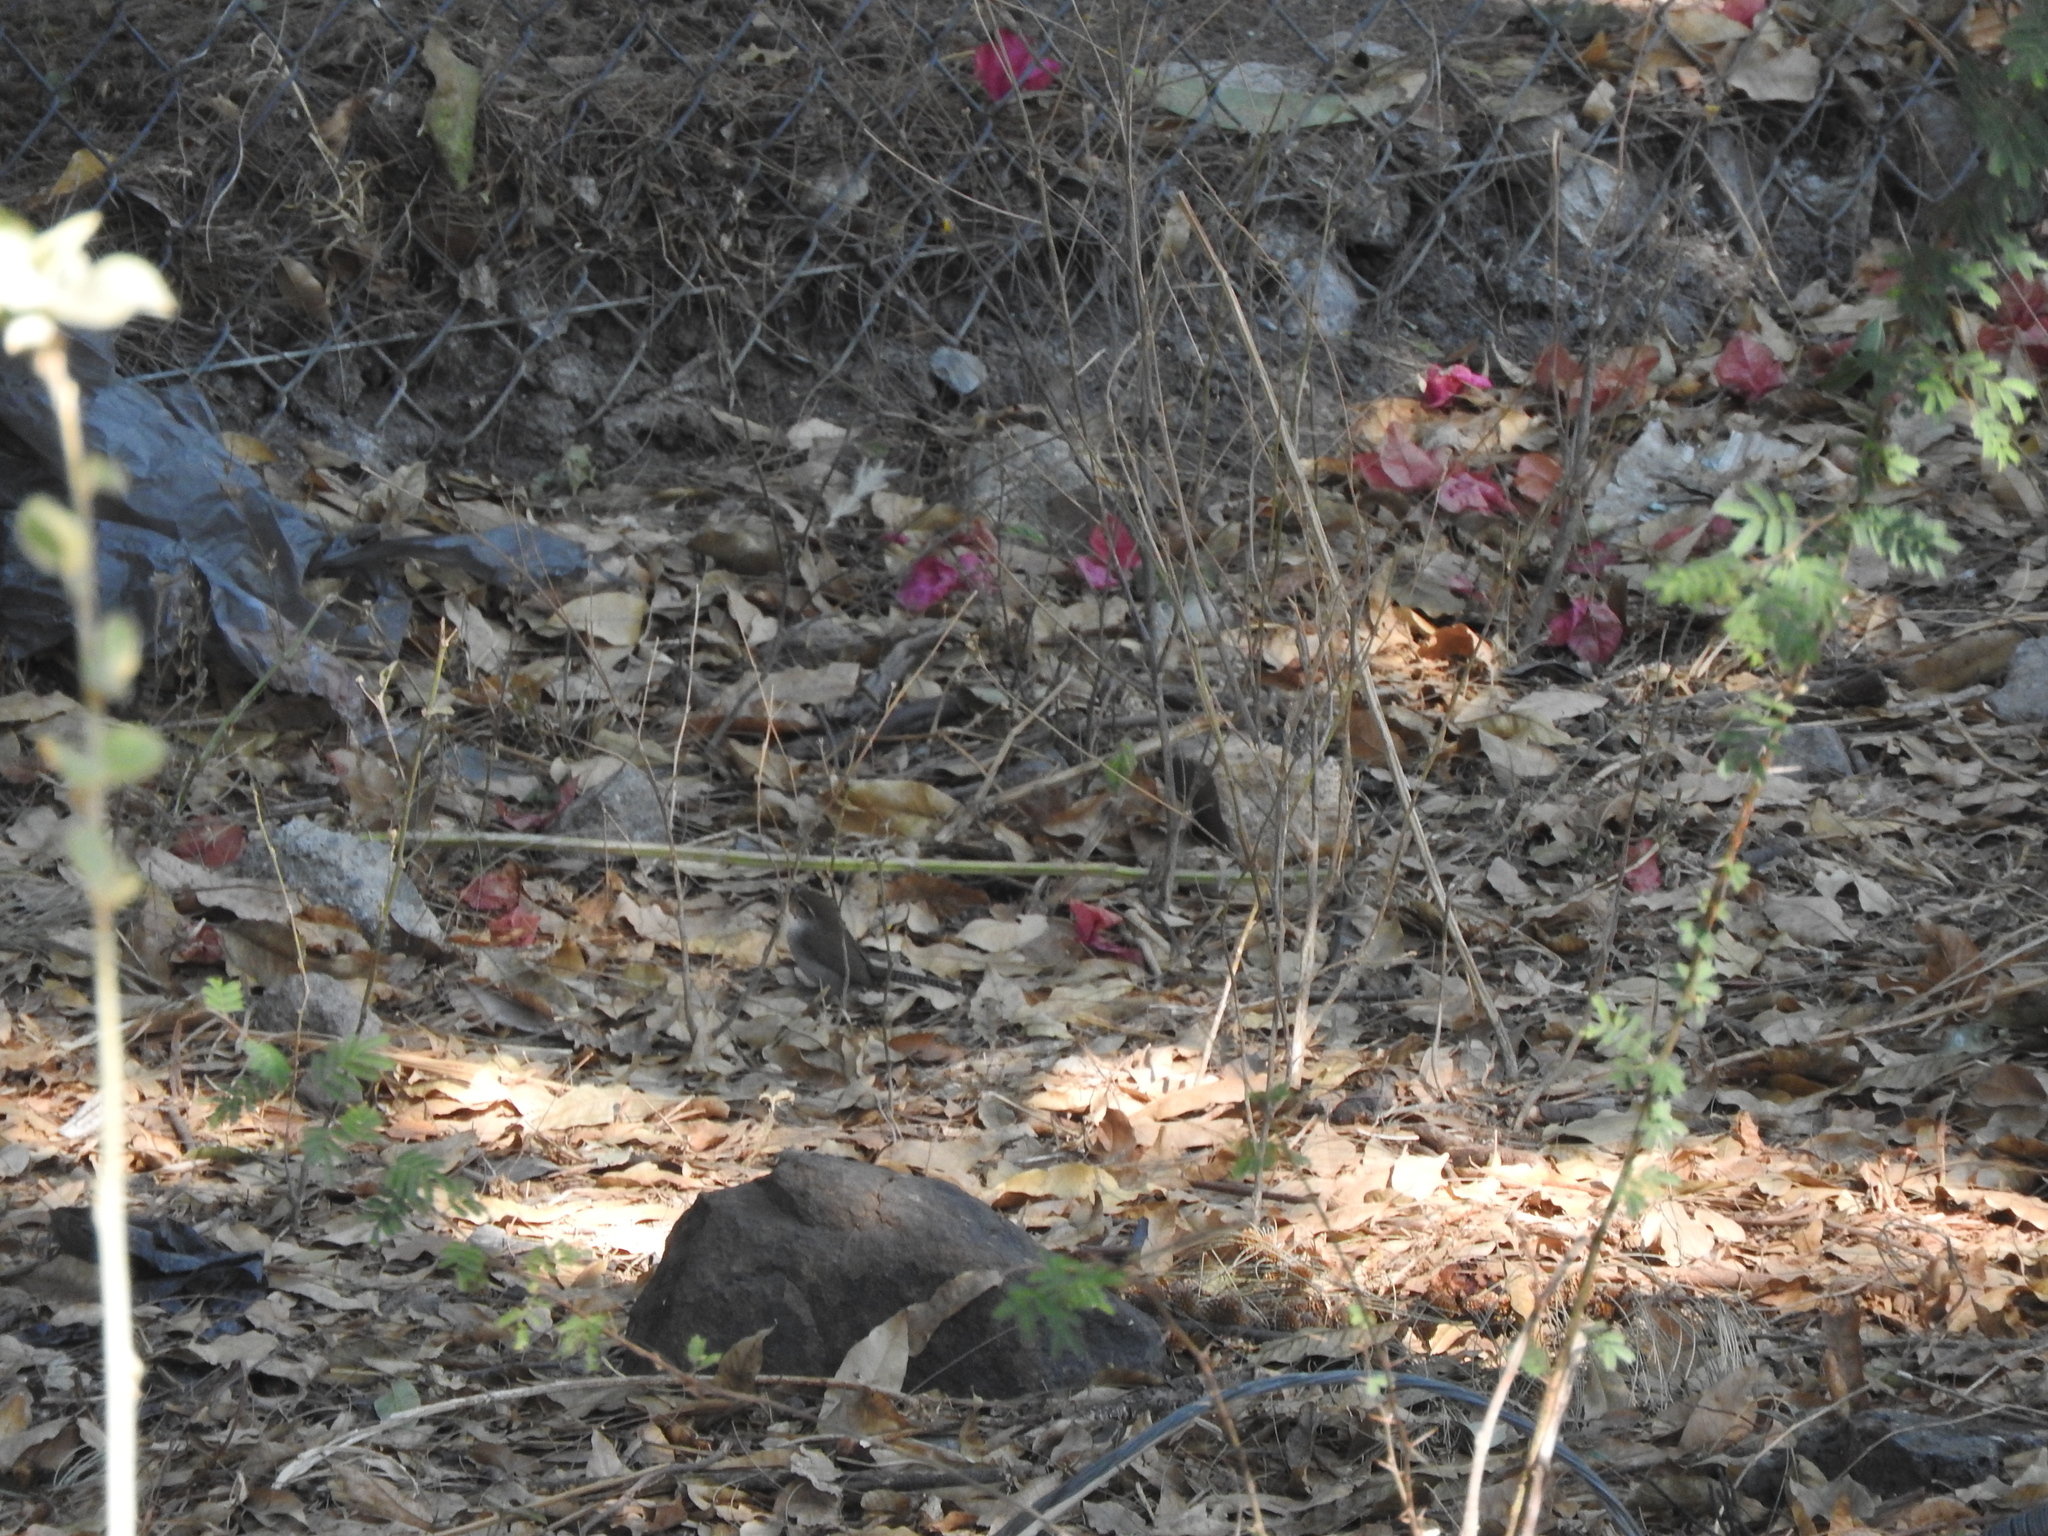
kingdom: Animalia
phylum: Chordata
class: Aves
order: Passeriformes
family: Troglodytidae
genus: Thryomanes
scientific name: Thryomanes bewickii
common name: Bewick's wren
